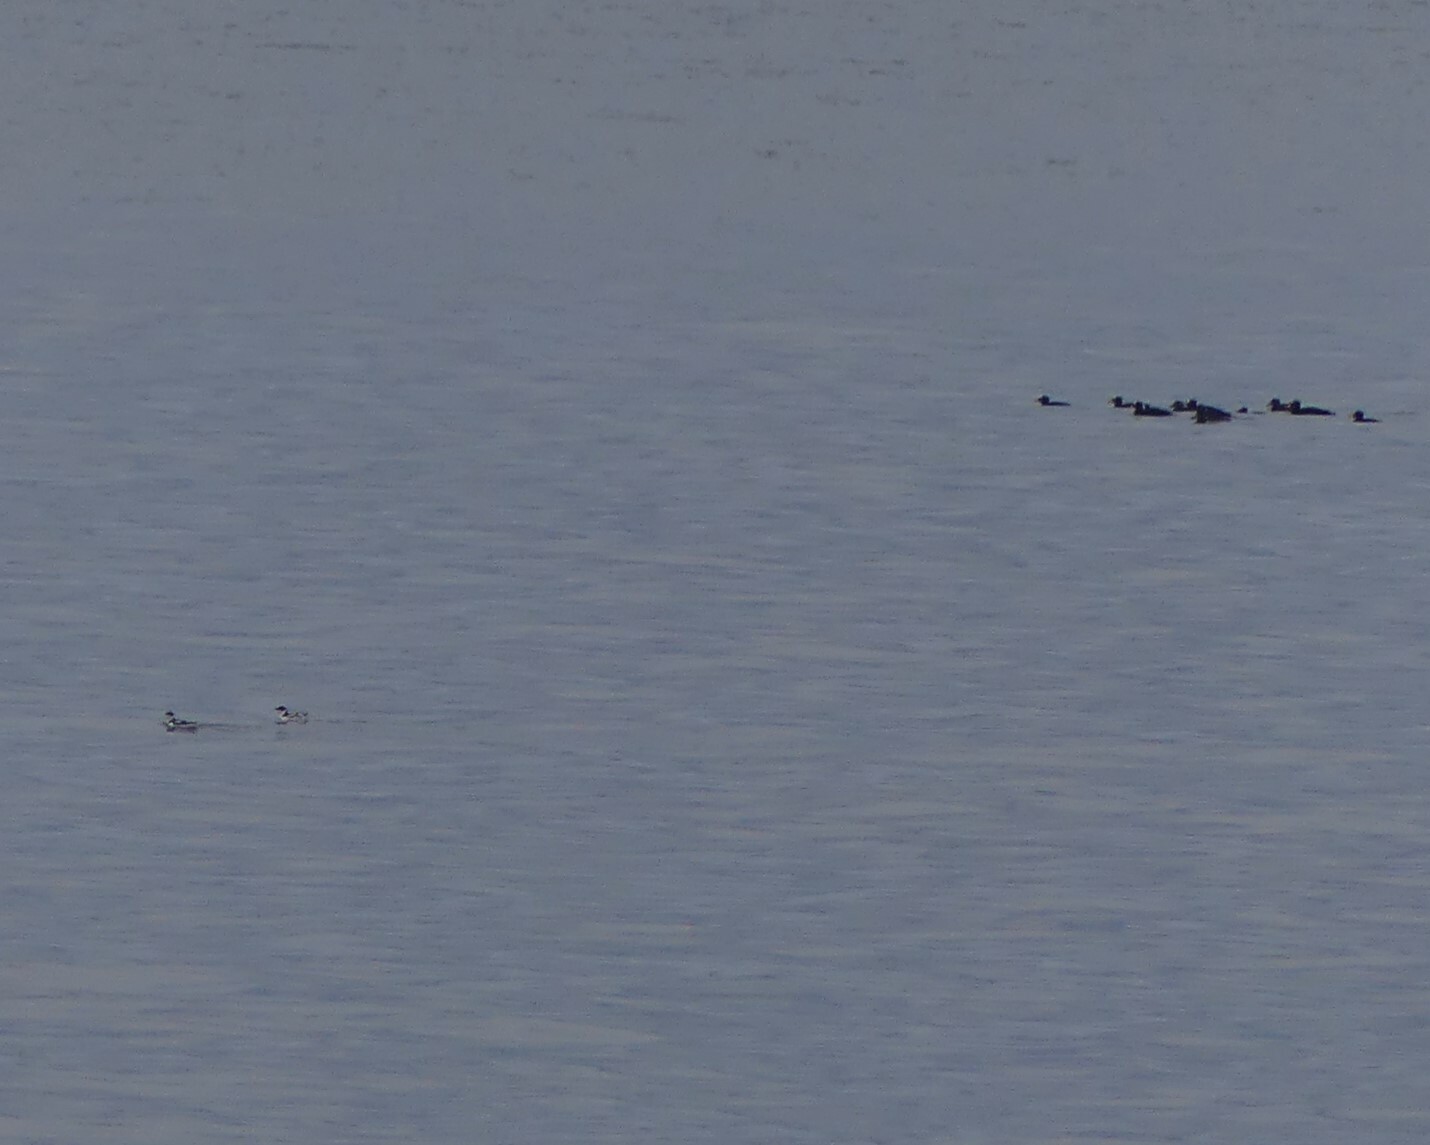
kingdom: Animalia
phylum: Chordata
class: Aves
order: Anseriformes
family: Anatidae
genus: Melanitta
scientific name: Melanitta perspicillata
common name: Surf scoter
